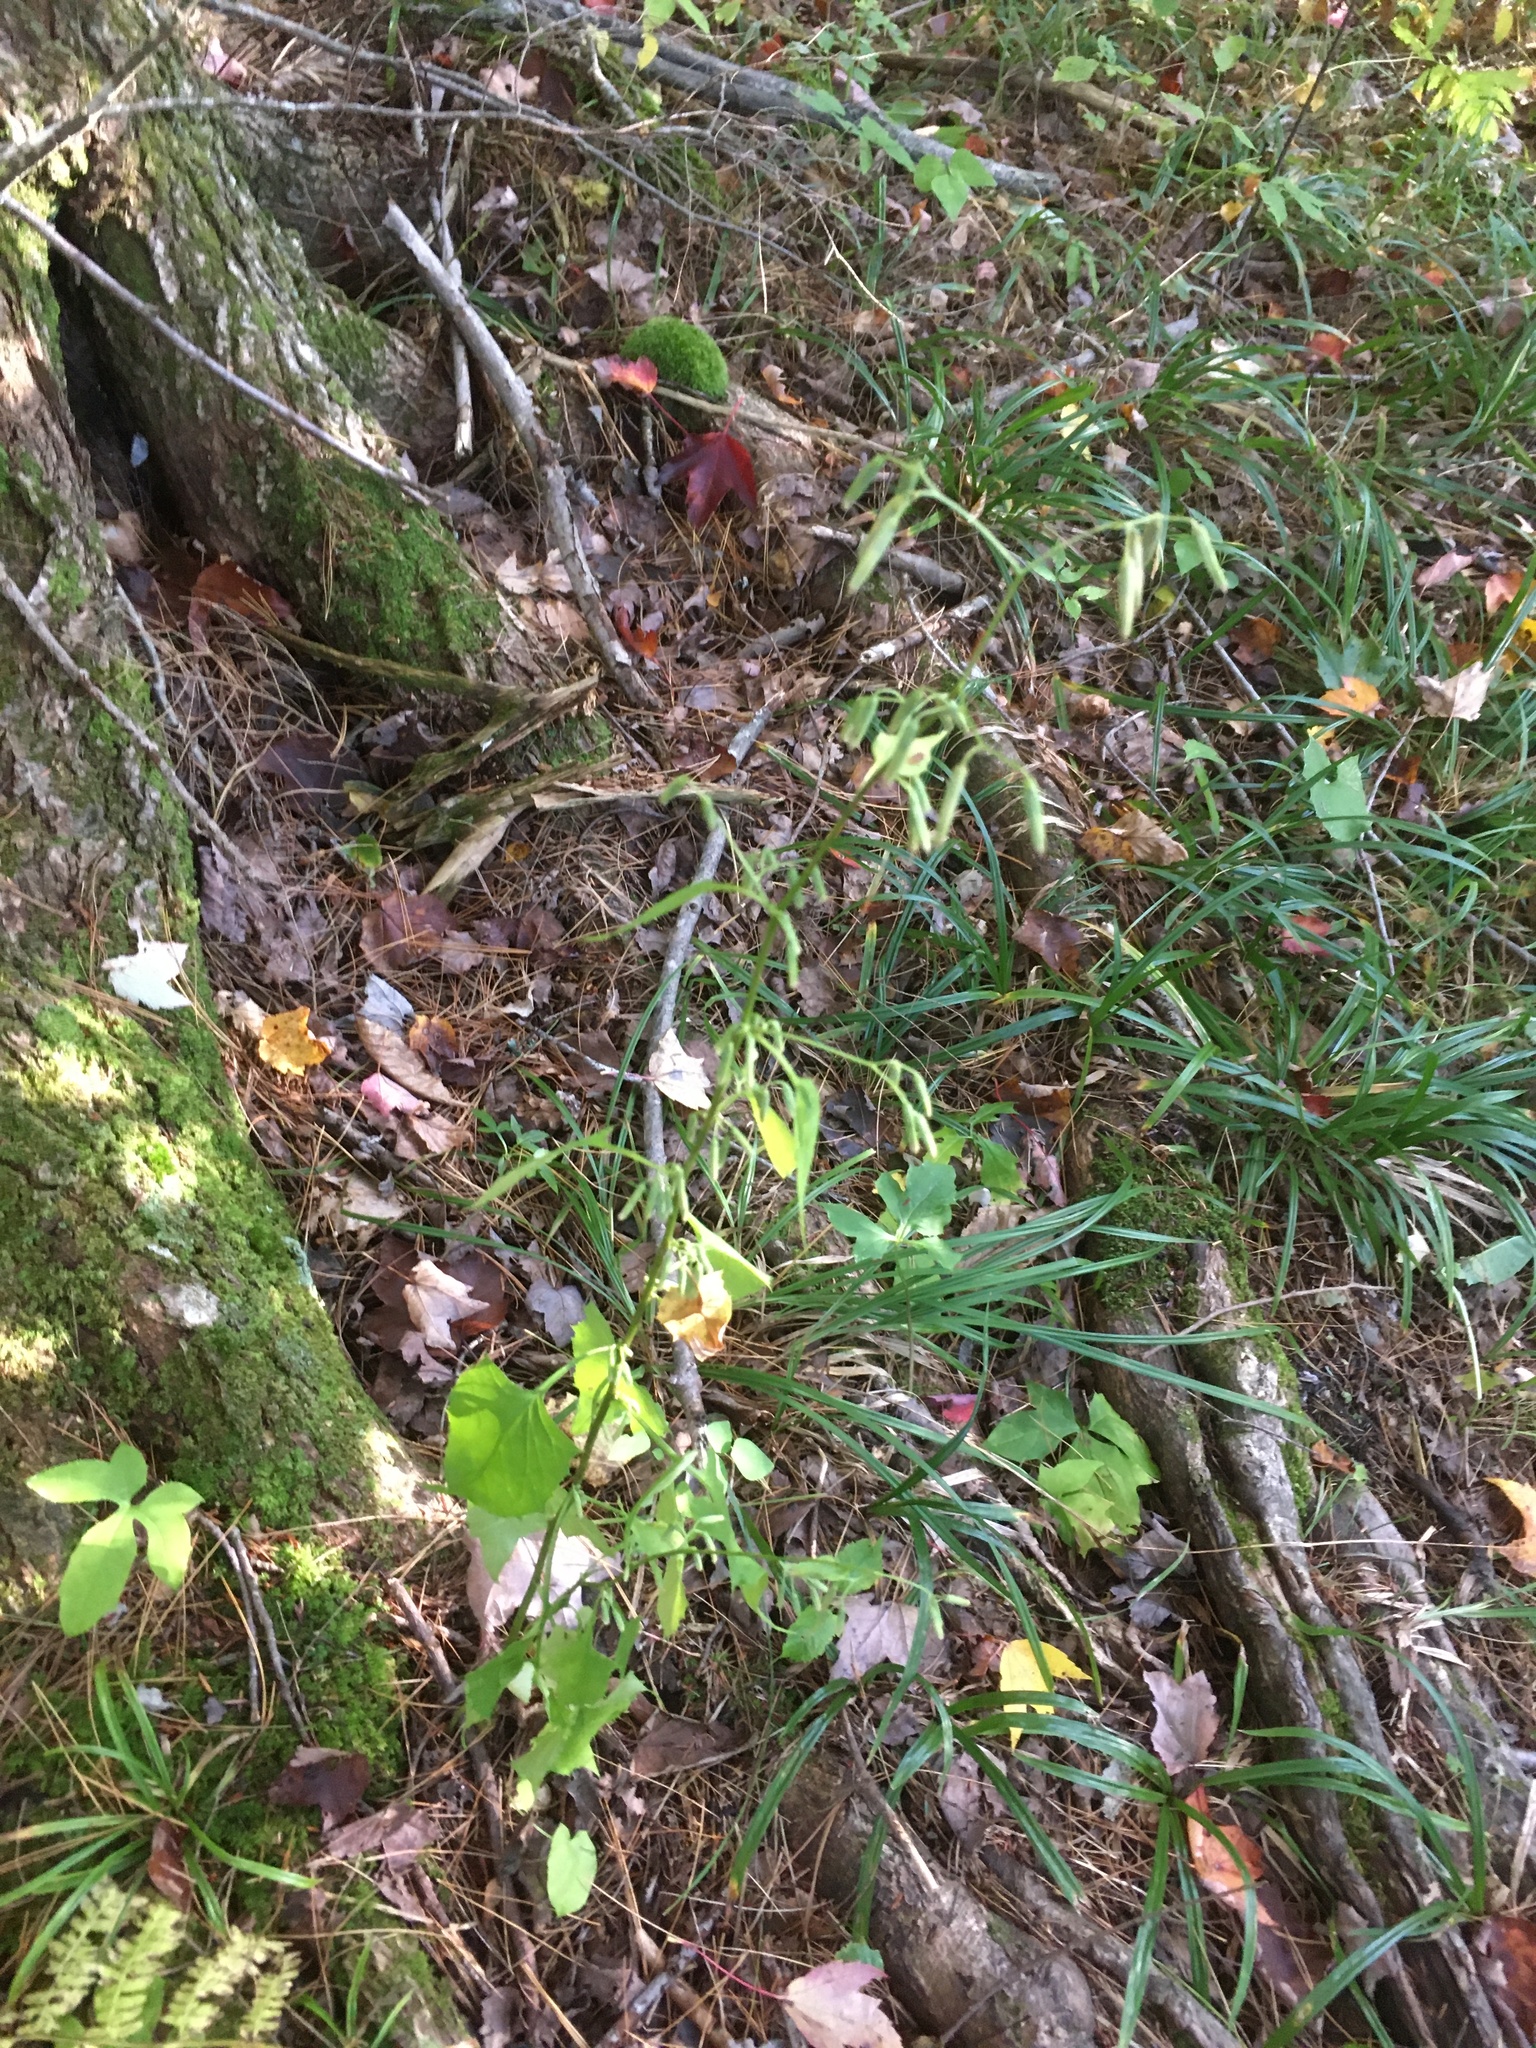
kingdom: Plantae
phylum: Tracheophyta
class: Magnoliopsida
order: Asterales
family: Asteraceae
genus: Nabalus
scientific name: Nabalus altissima
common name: Tall rattlesnakeroot
